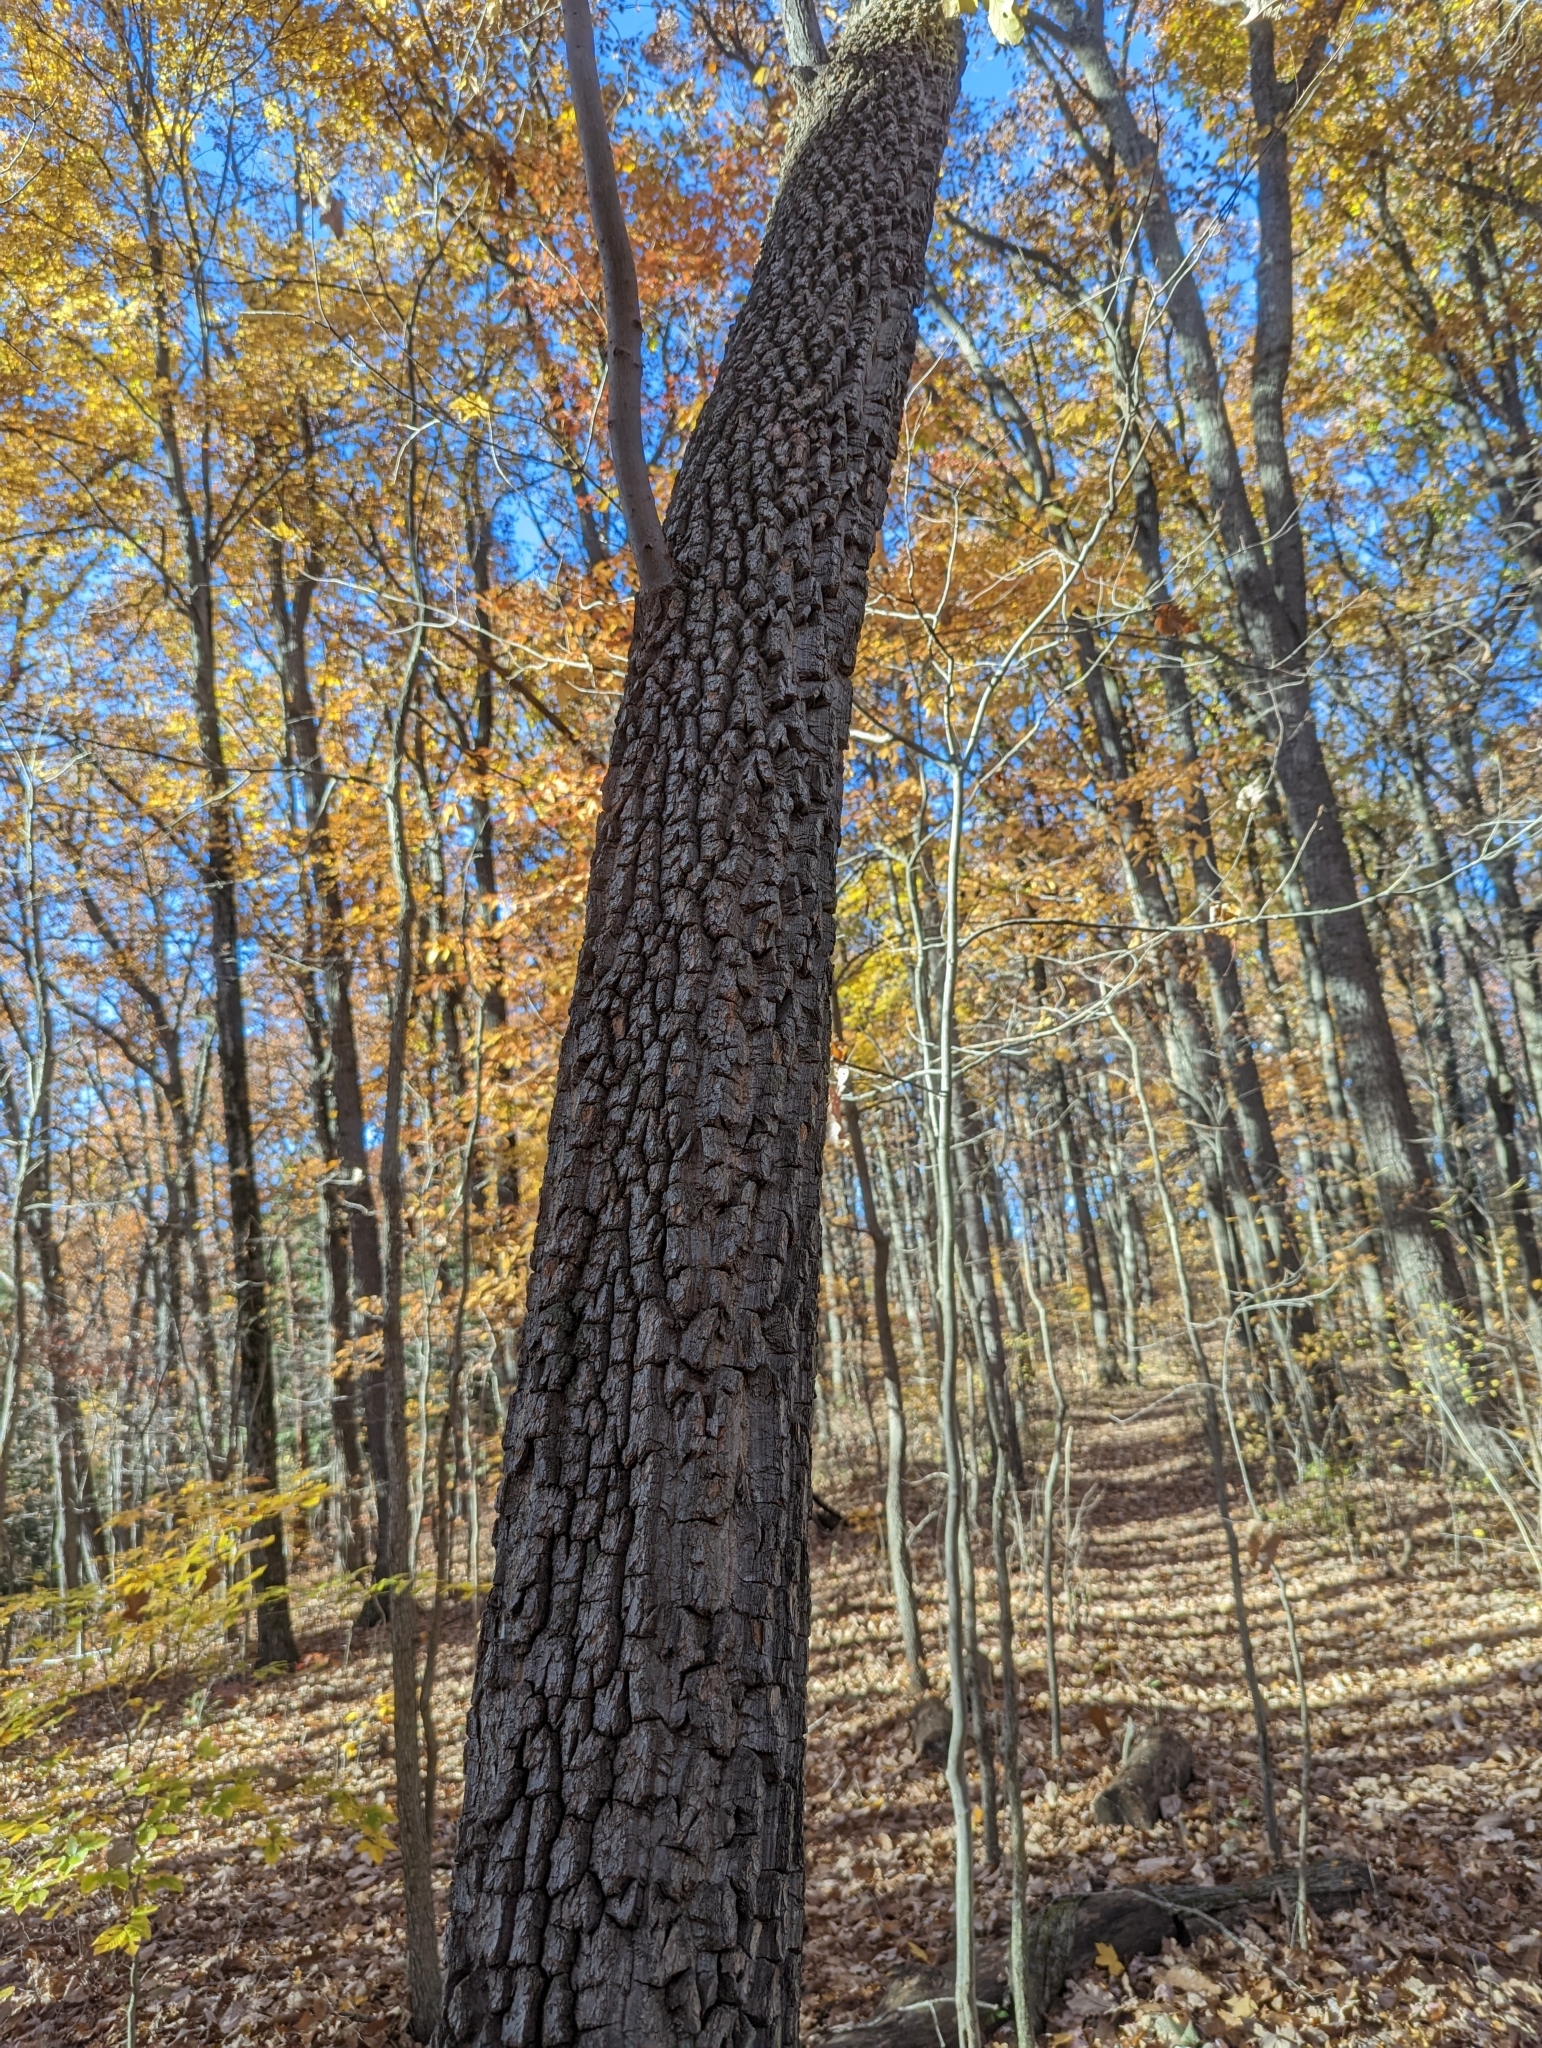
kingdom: Plantae
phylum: Tracheophyta
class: Magnoliopsida
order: Ericales
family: Ericaceae
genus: Oxydendrum
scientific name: Oxydendrum arboreum
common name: Sourwood
